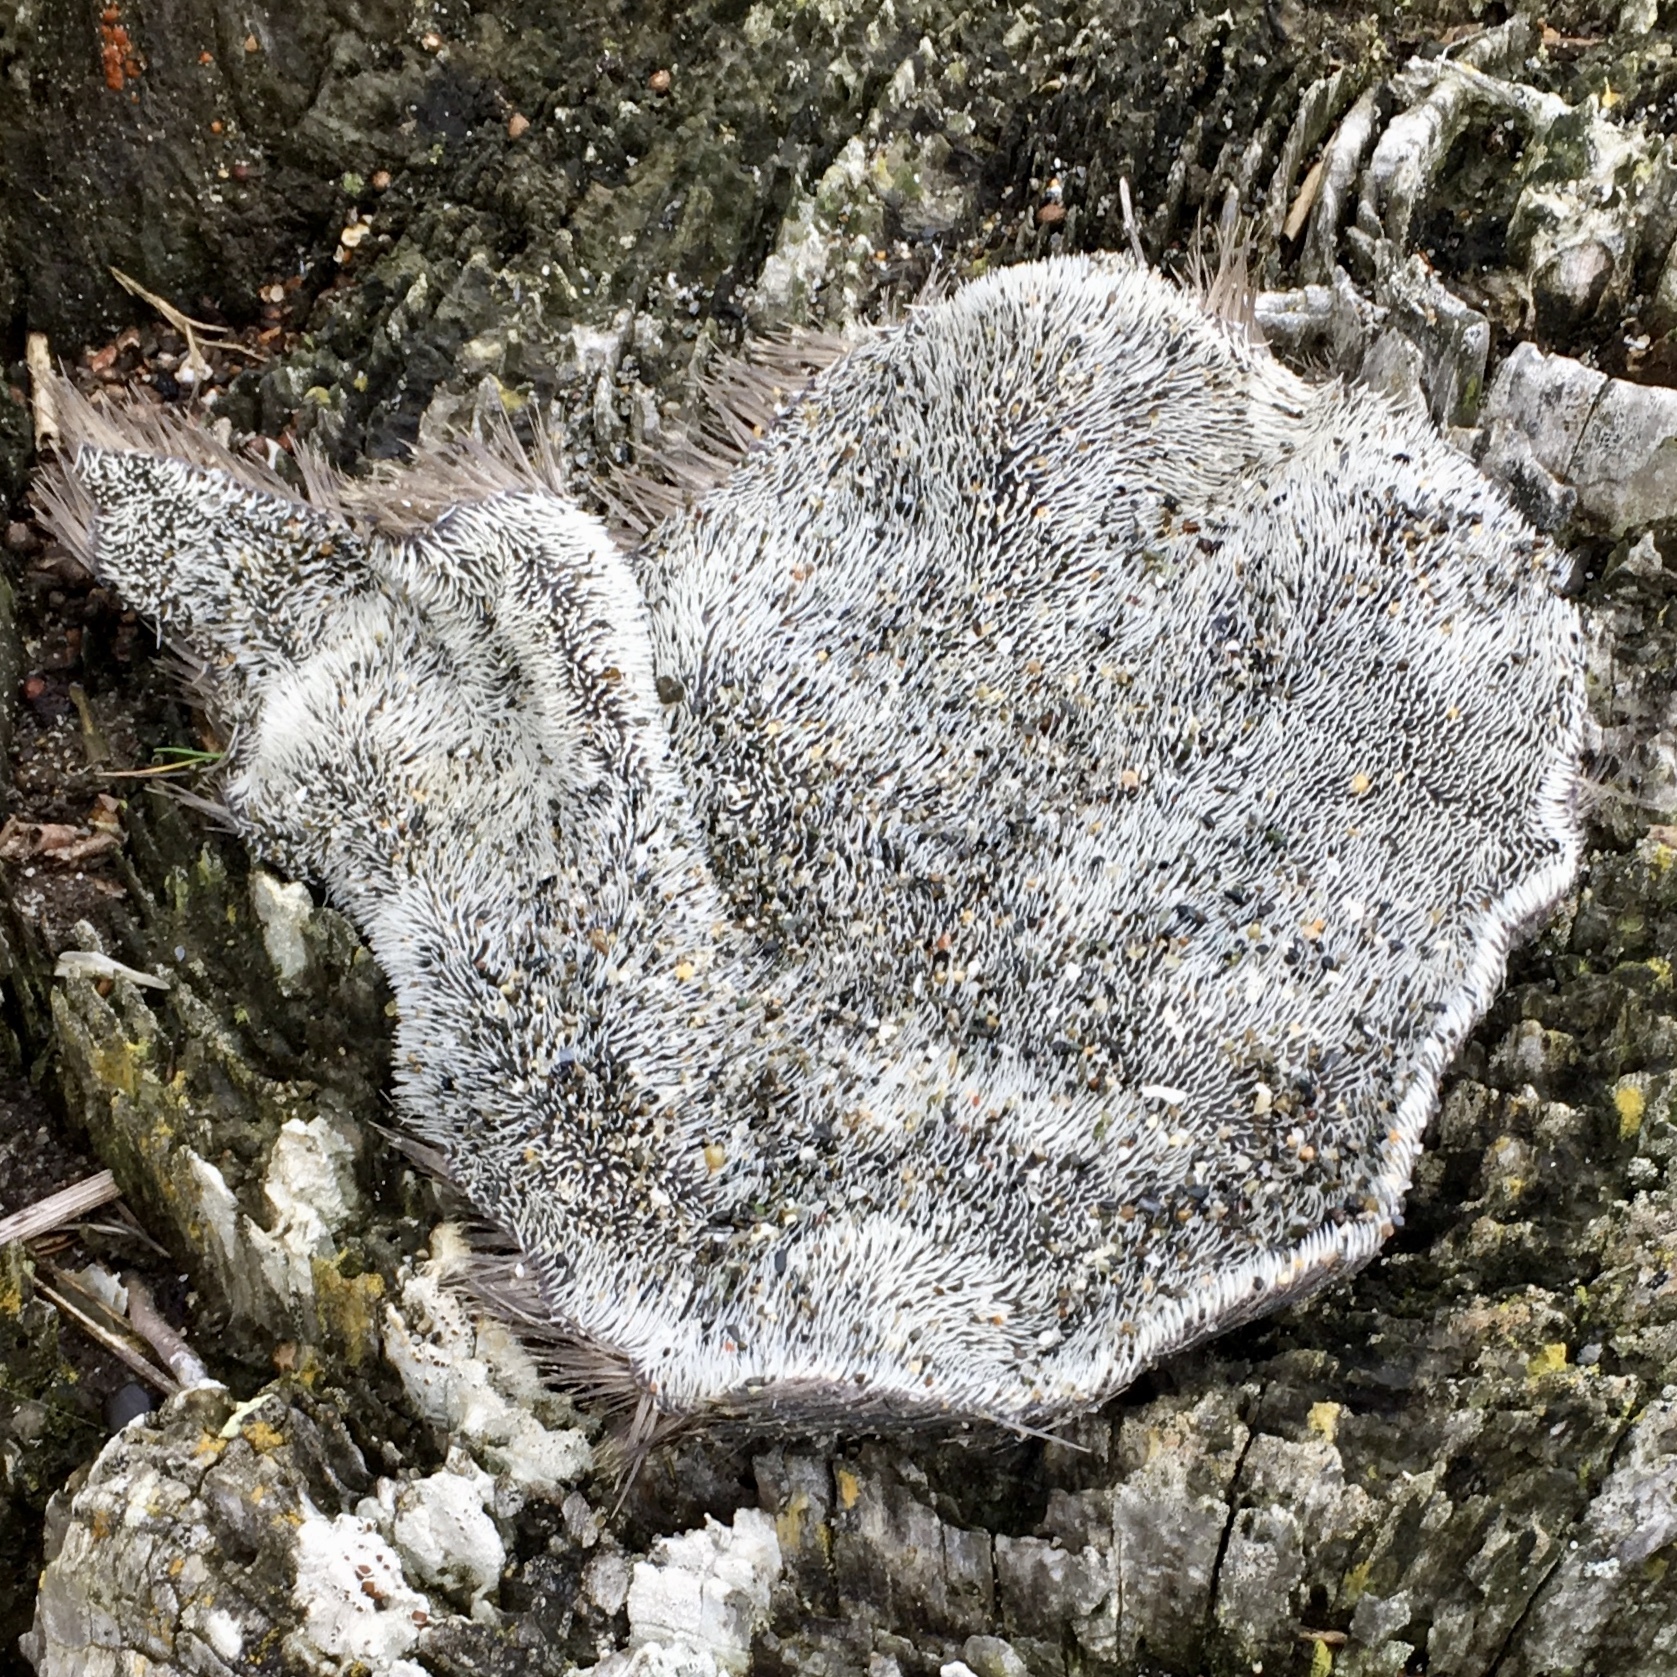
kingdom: Animalia
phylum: Chordata
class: Mammalia
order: Carnivora
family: Phocidae
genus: Mirounga
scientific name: Mirounga angustirostris
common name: Northern elephant seal
